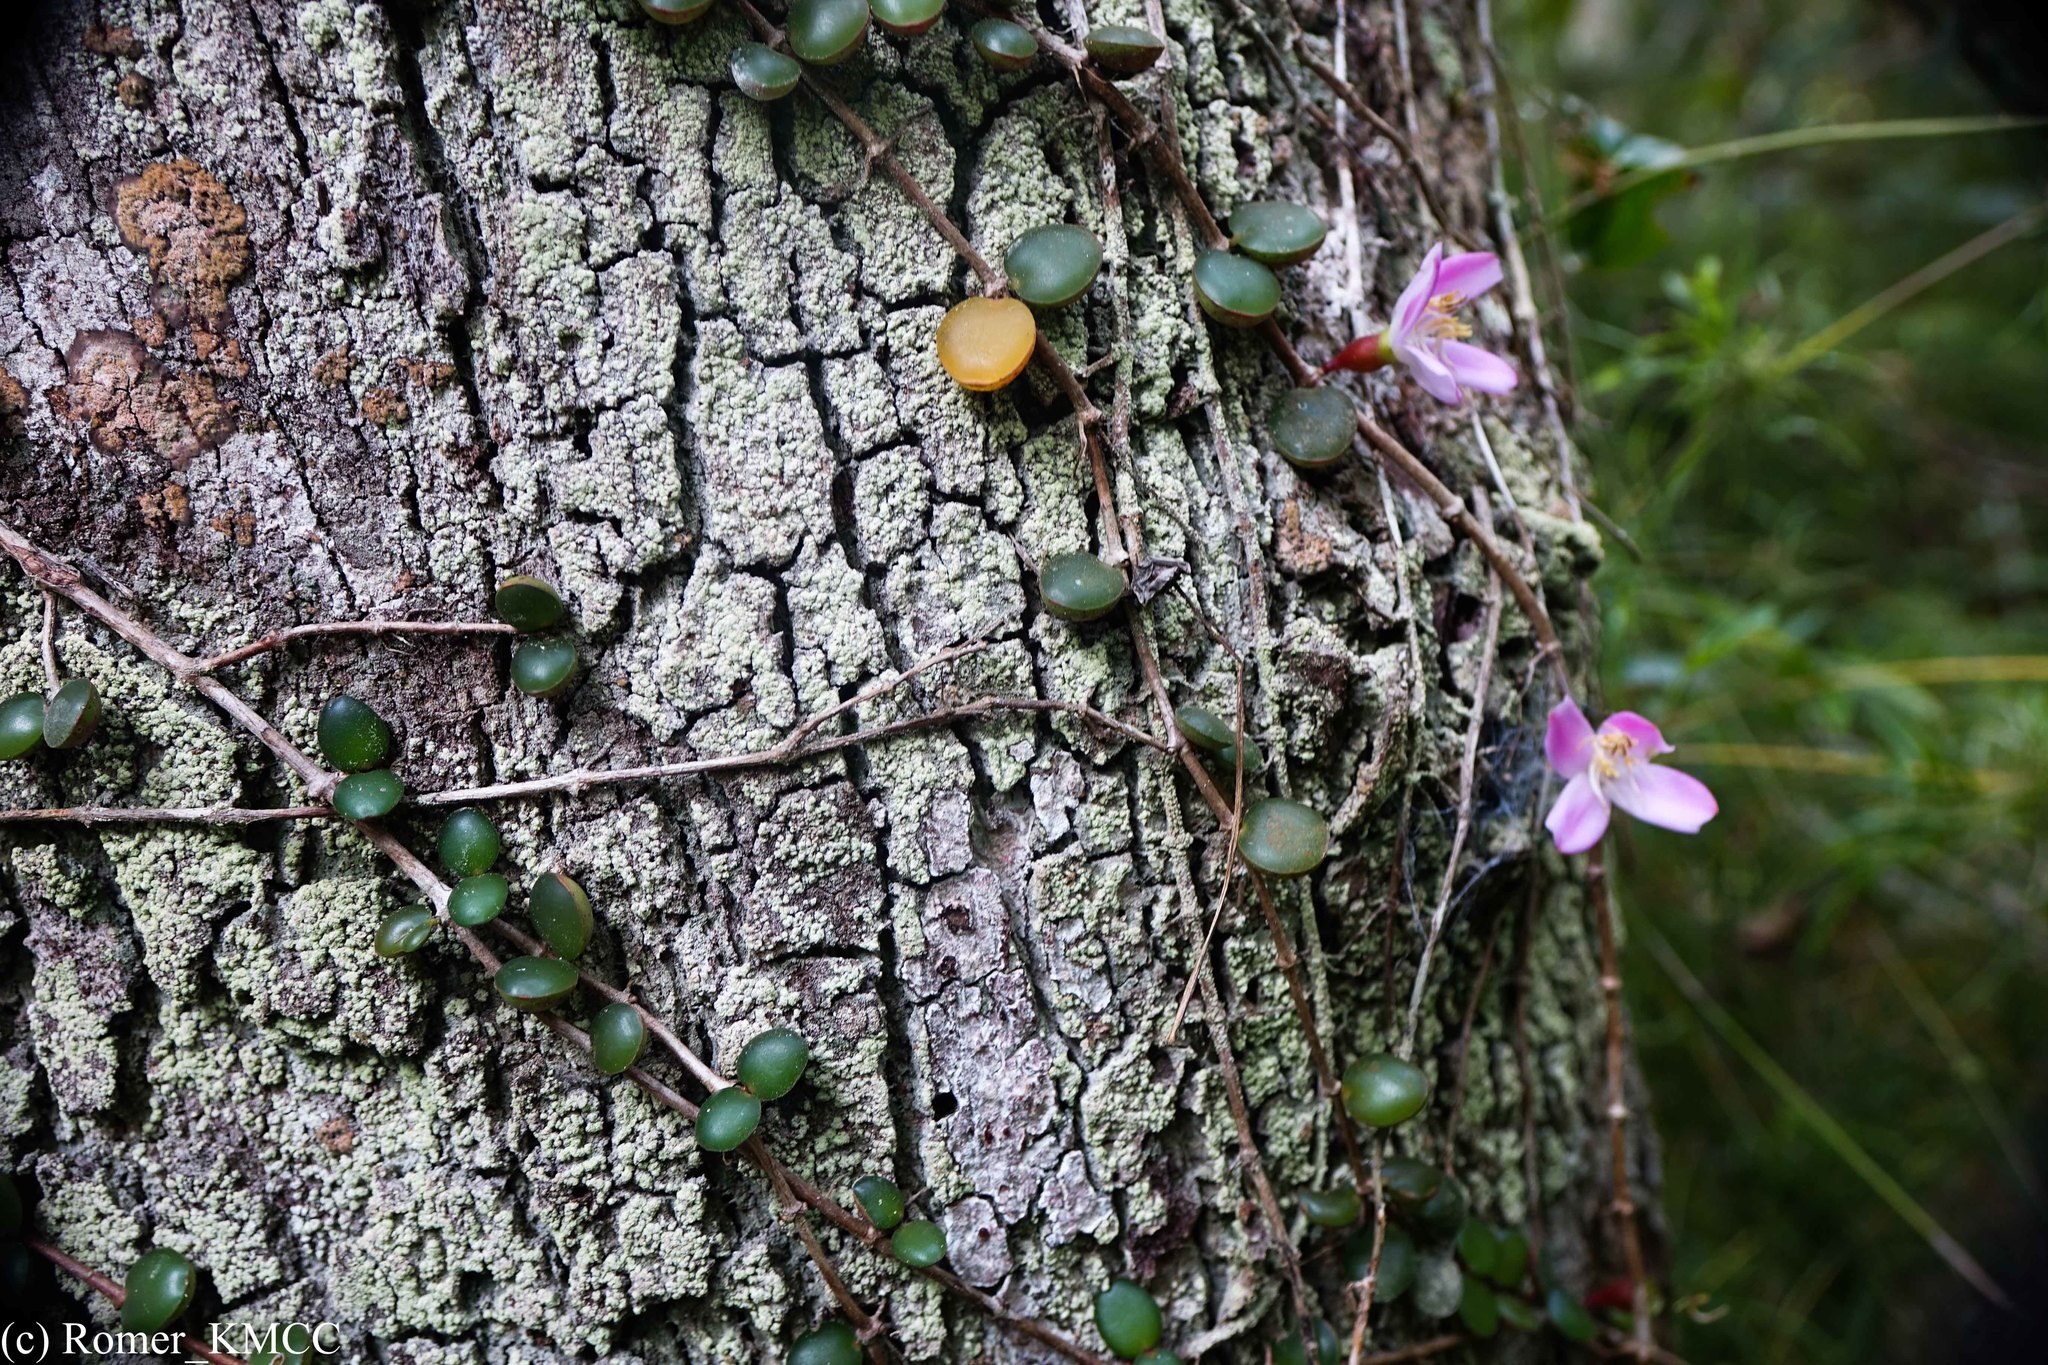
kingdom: Plantae
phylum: Tracheophyta
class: Magnoliopsida
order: Myrtales
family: Melastomataceae
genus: Medinilla
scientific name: Medinilla sedifolia
